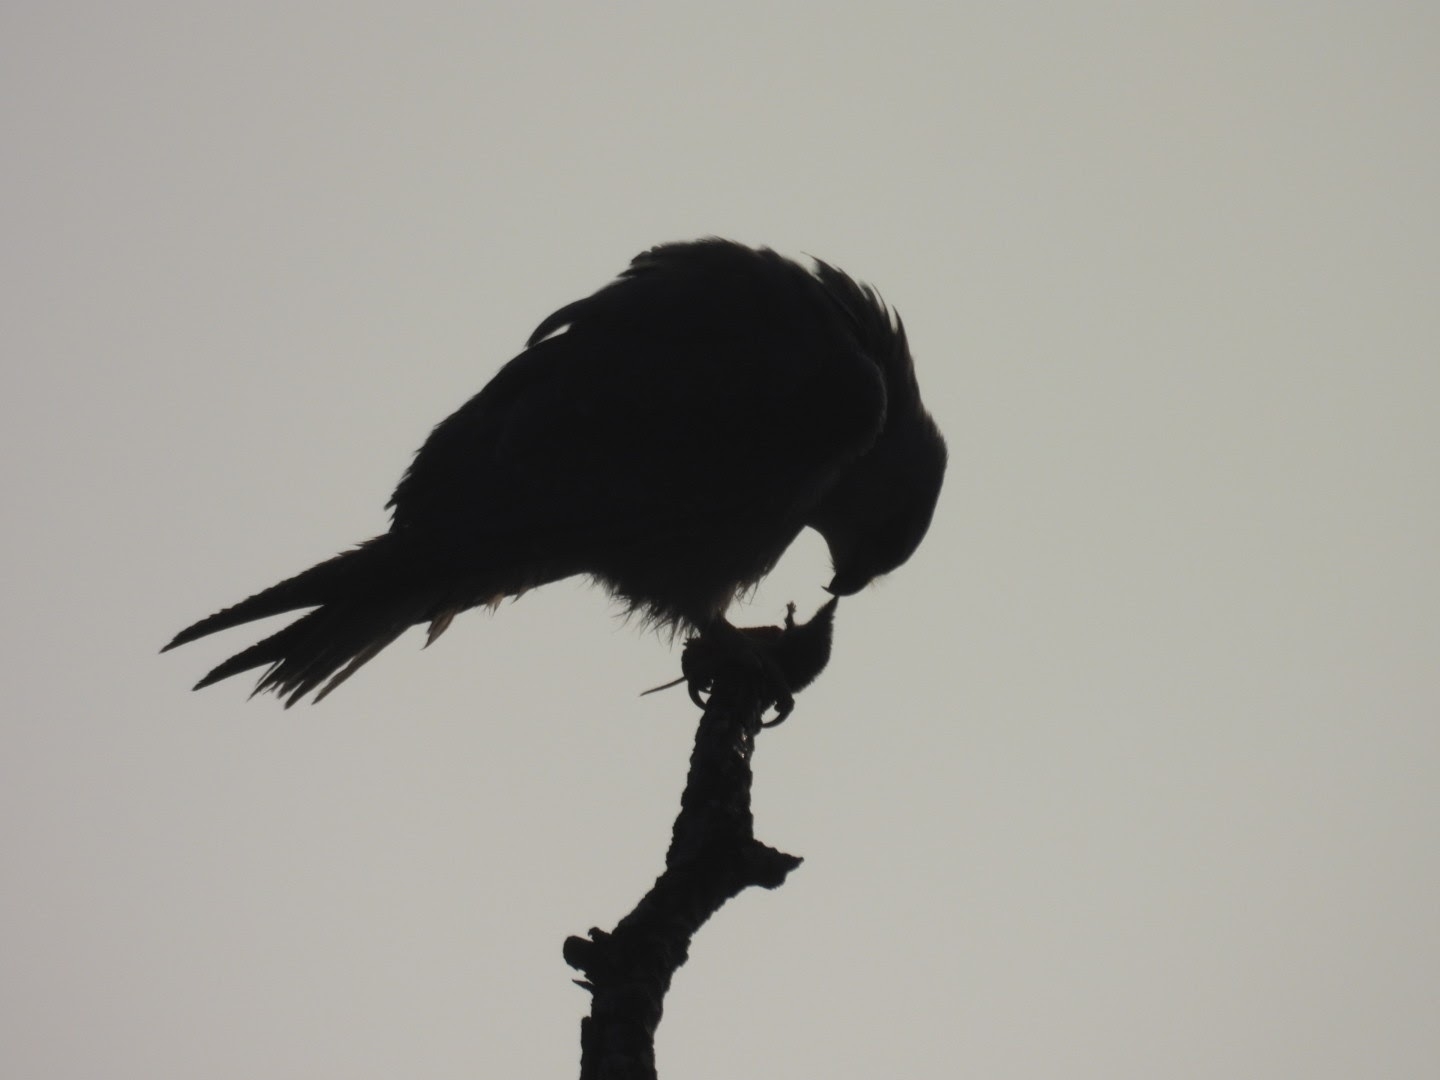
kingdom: Animalia
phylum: Chordata
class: Aves
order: Accipitriformes
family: Accipitridae
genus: Elanus
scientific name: Elanus caeruleus
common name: Black-winged kite
